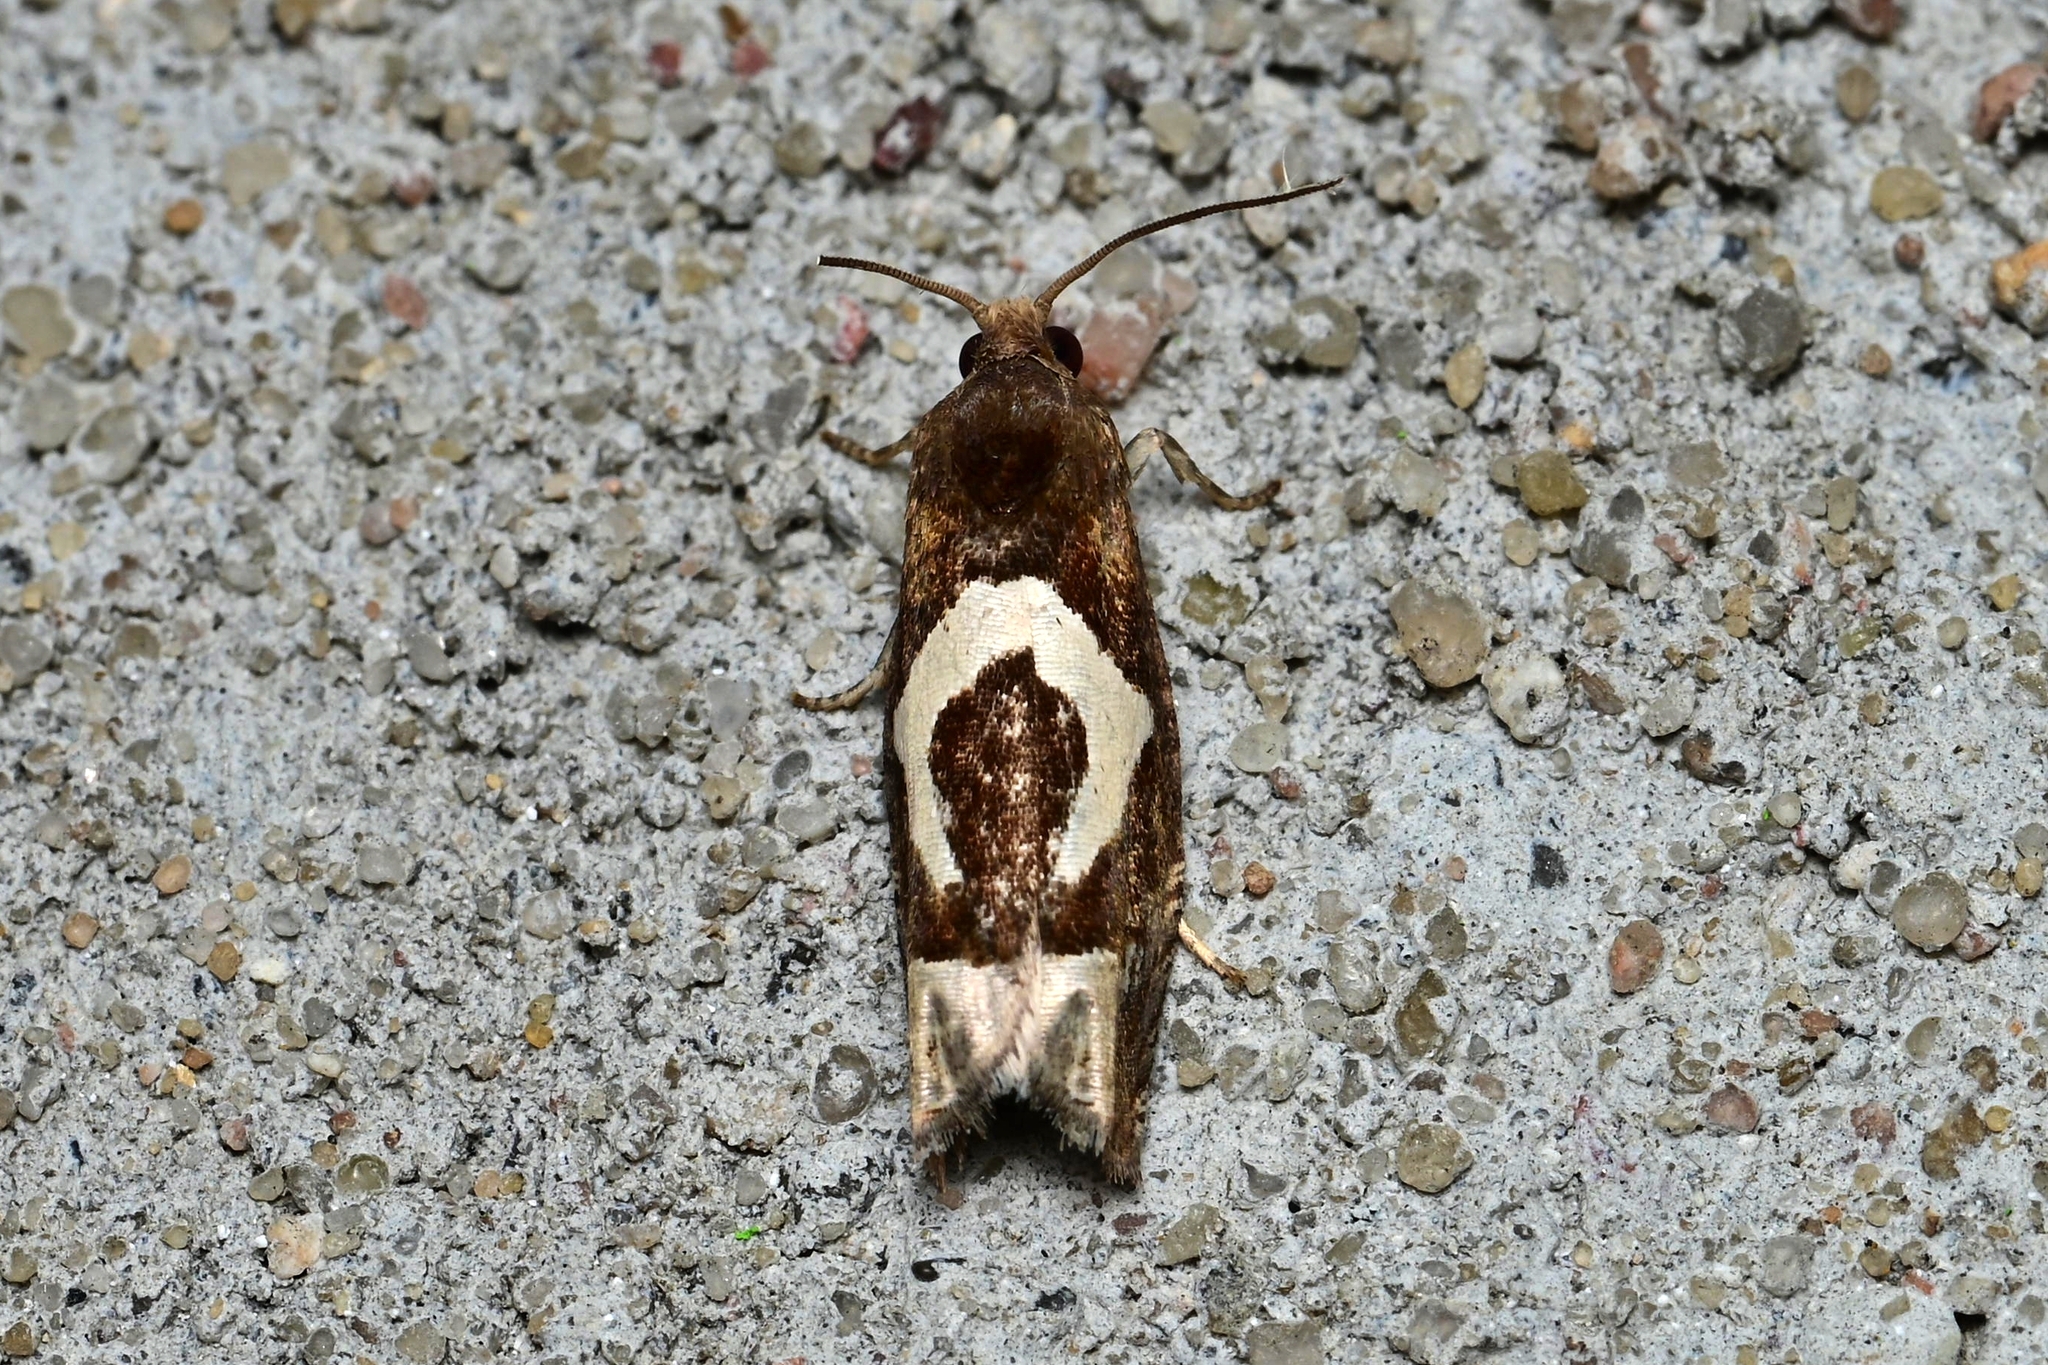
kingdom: Animalia
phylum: Arthropoda
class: Insecta
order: Lepidoptera
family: Tortricidae
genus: Epiblema
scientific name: Epiblema foenella
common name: White-foot bell
